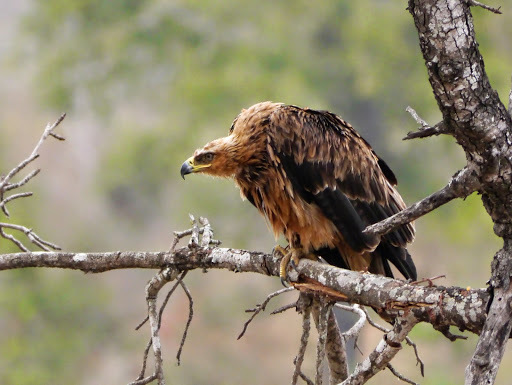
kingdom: Animalia
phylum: Chordata
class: Aves
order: Accipitriformes
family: Accipitridae
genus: Aquila
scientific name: Aquila rapax
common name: Tawny eagle
